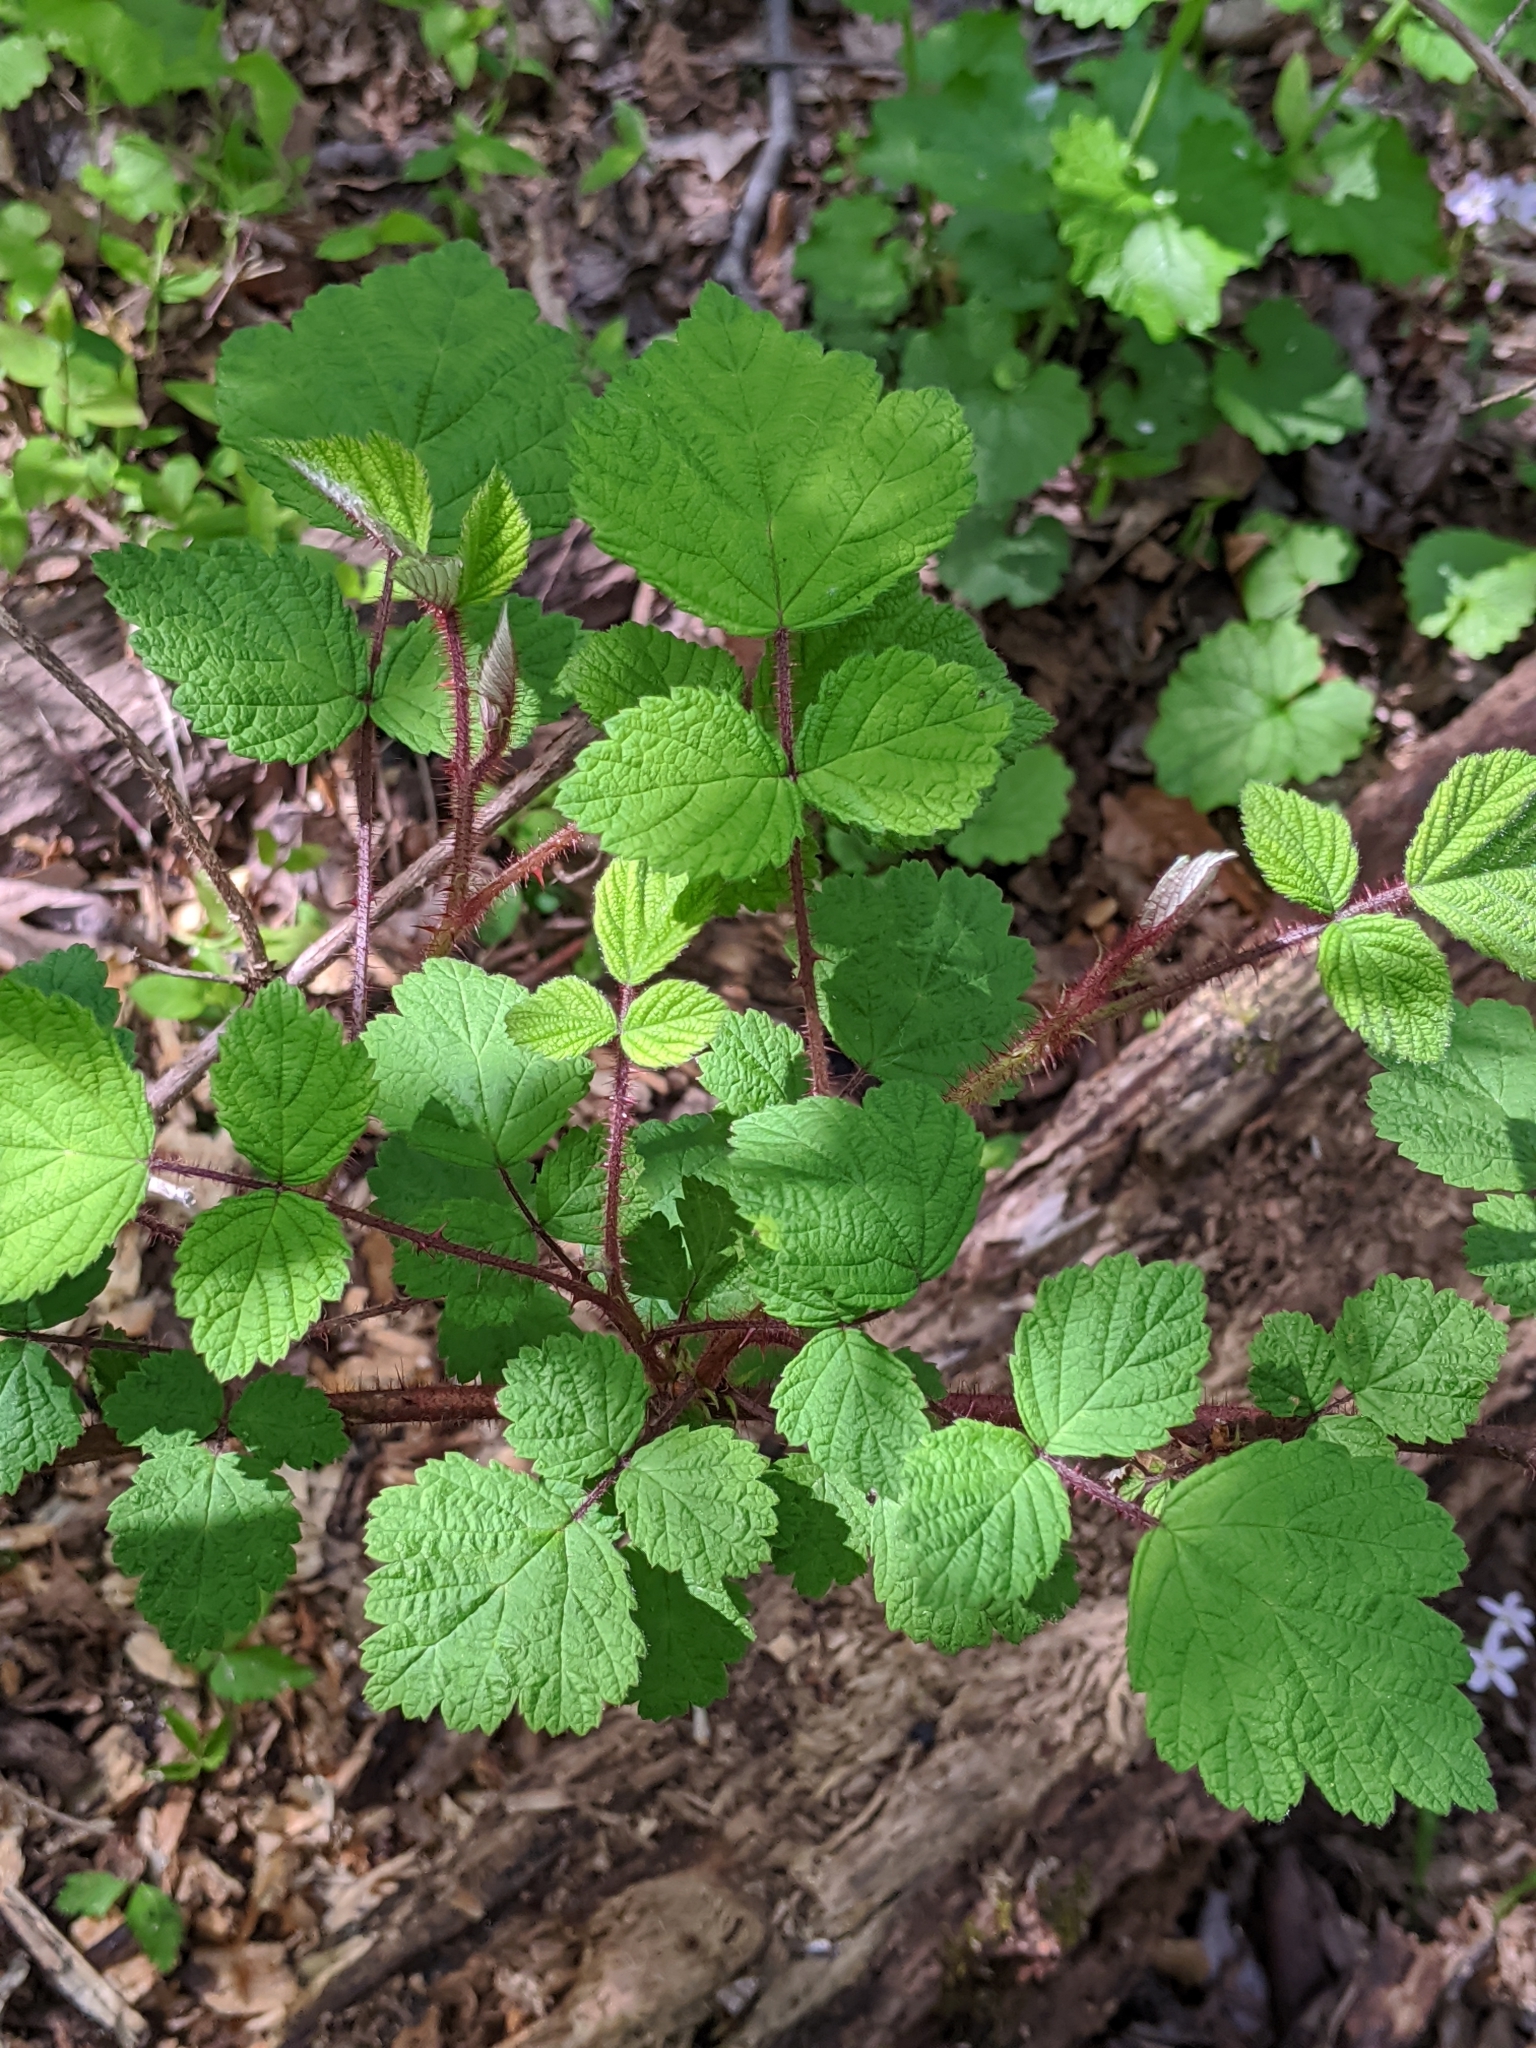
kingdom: Plantae
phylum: Tracheophyta
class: Magnoliopsida
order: Rosales
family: Rosaceae
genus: Rubus
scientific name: Rubus phoenicolasius
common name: Japanese wineberry
